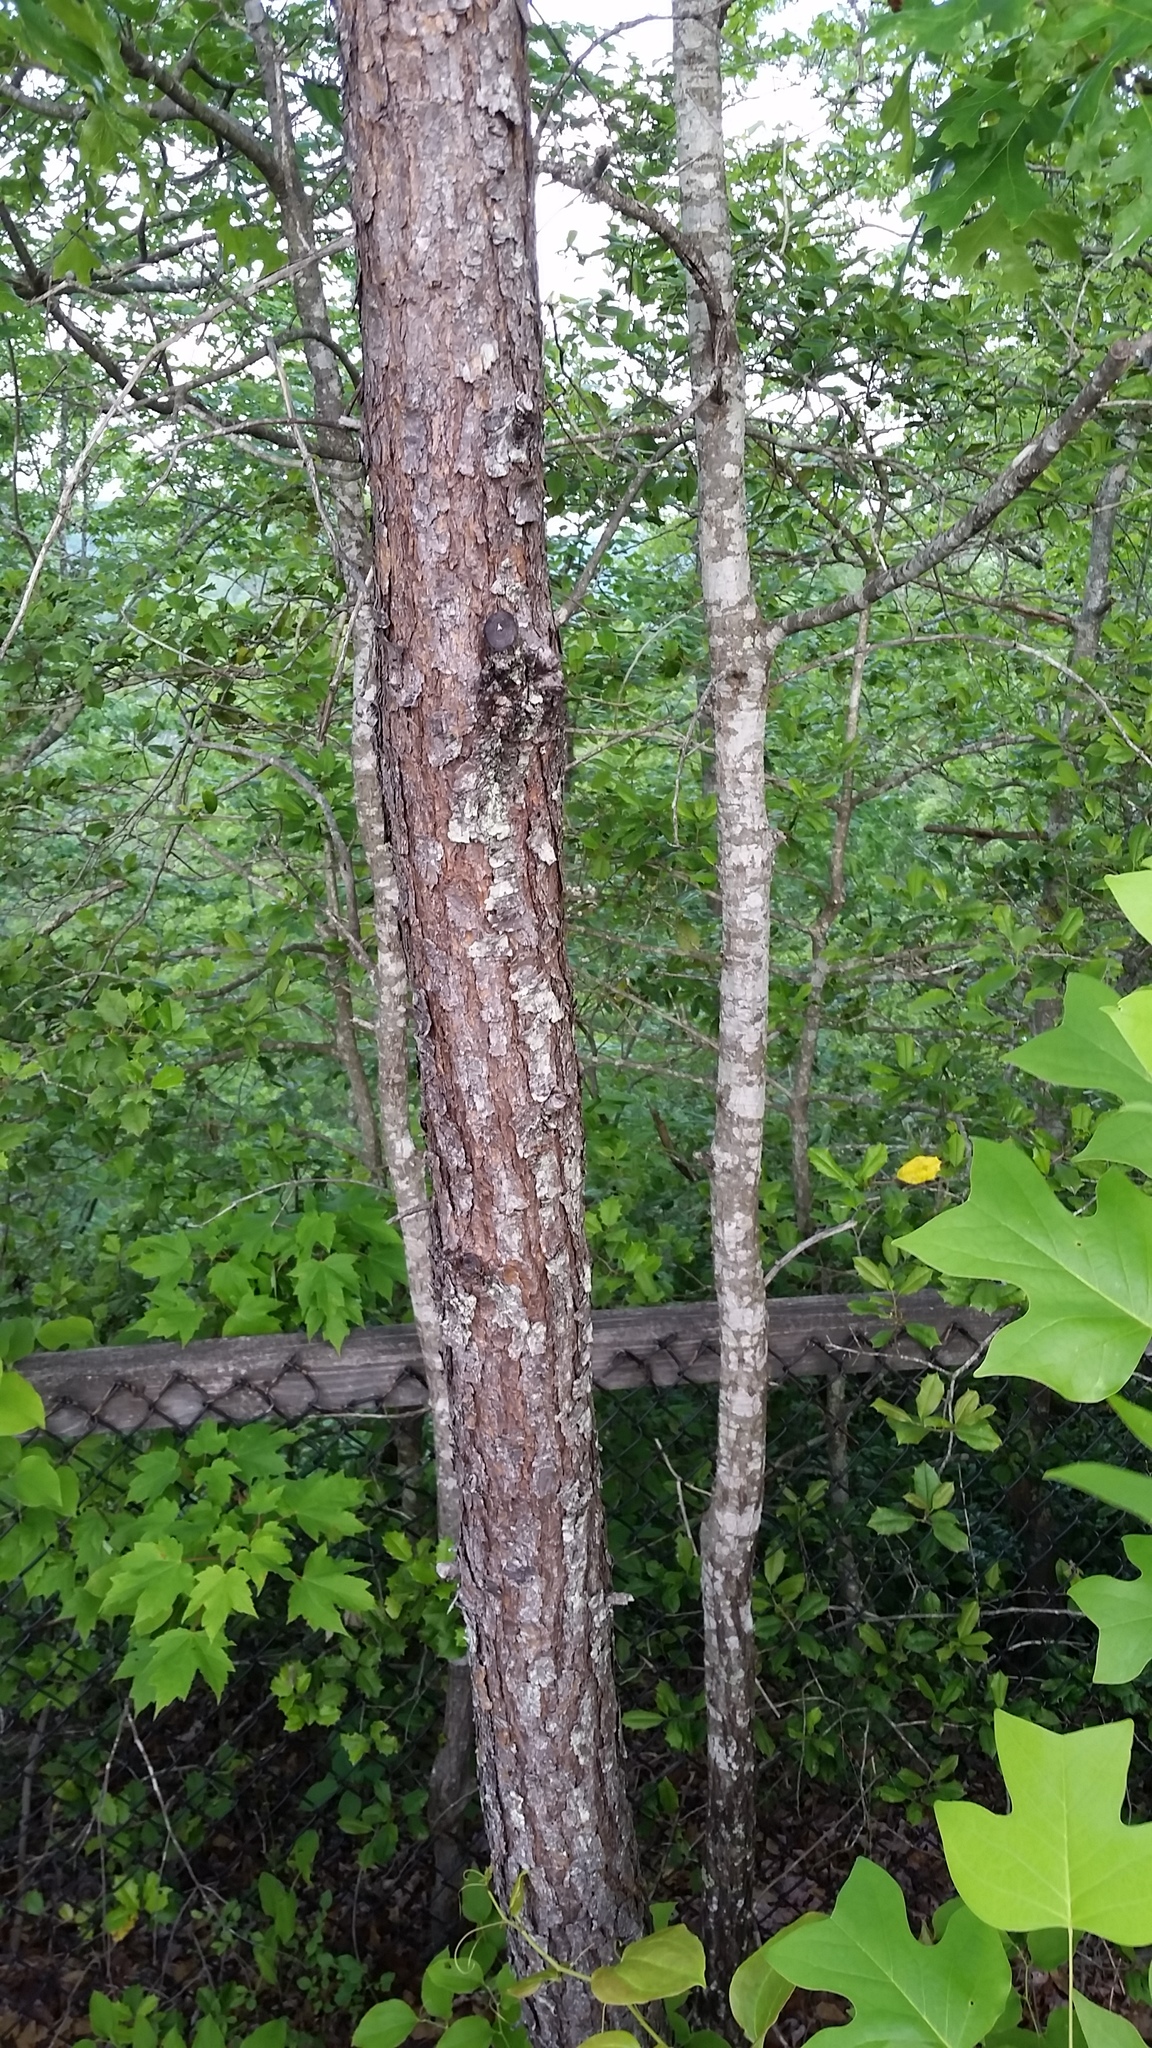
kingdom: Plantae
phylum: Tracheophyta
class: Pinopsida
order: Pinales
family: Pinaceae
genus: Pinus
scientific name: Pinus virginiana
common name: Scrub pine
